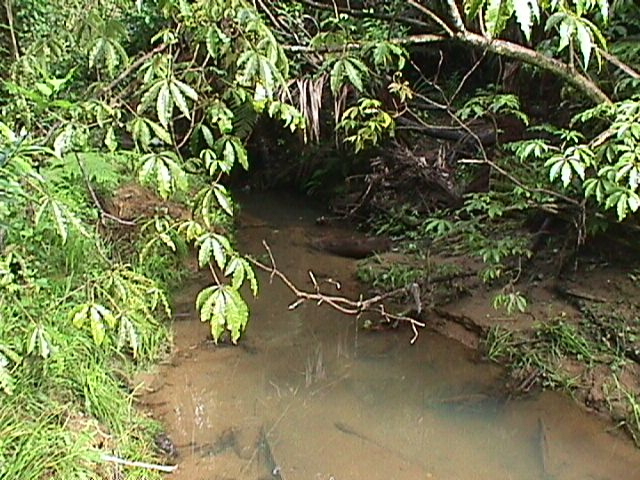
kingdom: Plantae
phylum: Tracheophyta
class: Magnoliopsida
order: Apiales
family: Araliaceae
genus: Schefflera
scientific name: Schefflera digitata
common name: Pate
